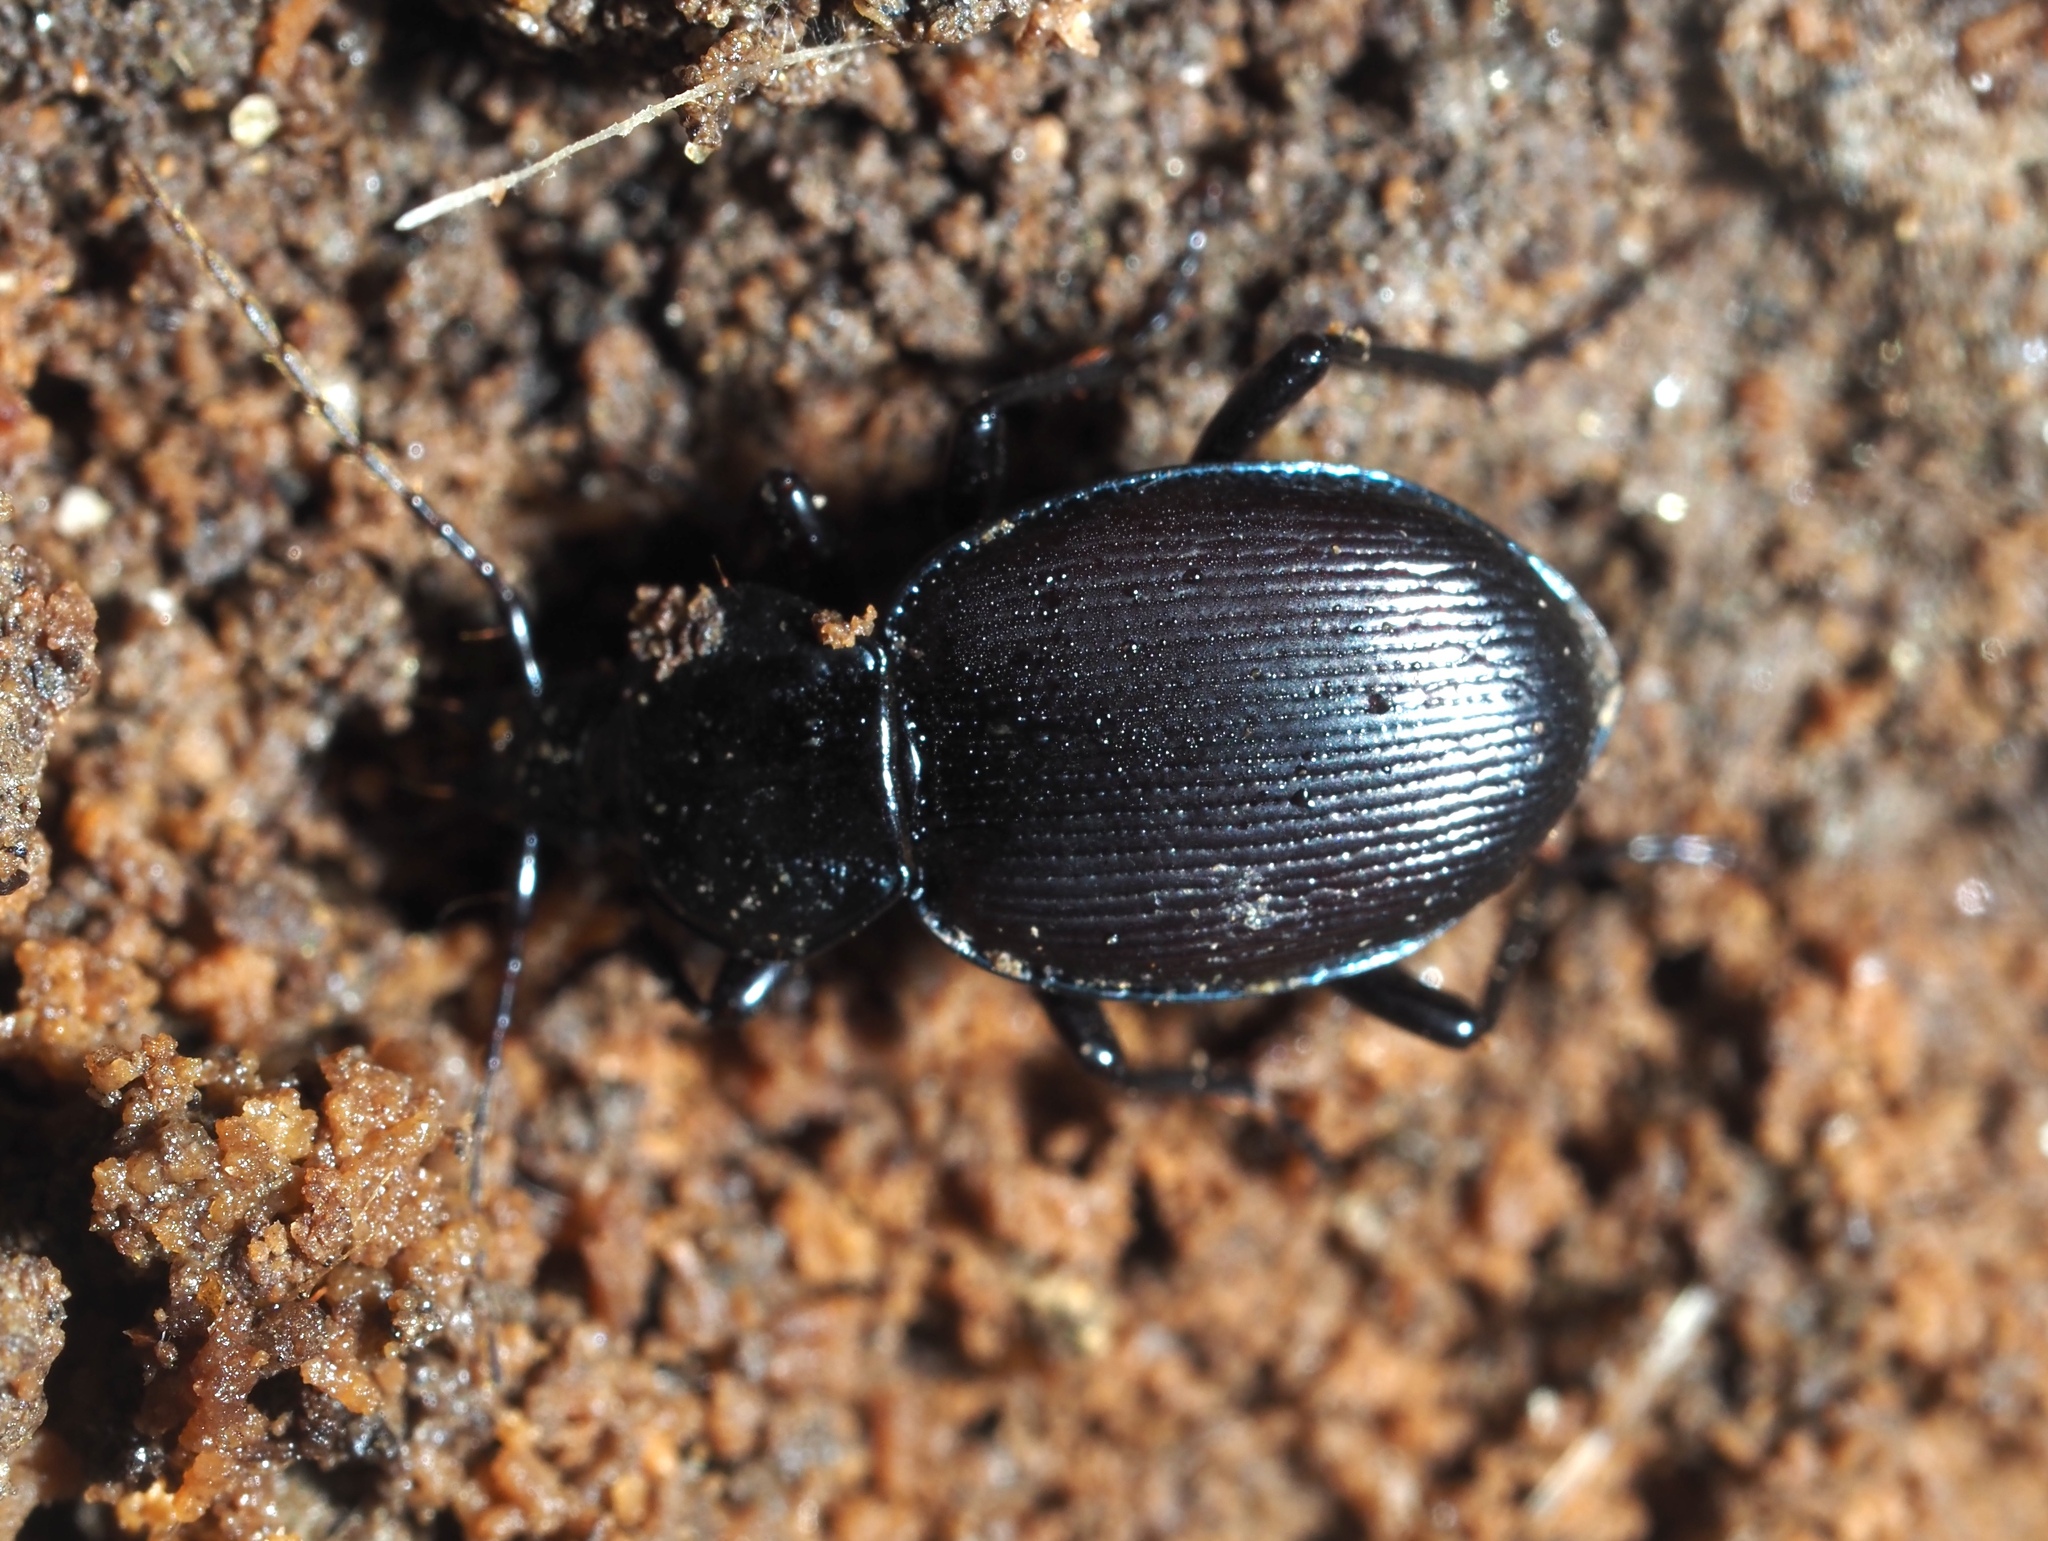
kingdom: Animalia
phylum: Arthropoda
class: Insecta
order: Coleoptera
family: Carabidae
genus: Sphaeroderus
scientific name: Sphaeroderus stenostomus
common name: Small snail-eating ground beetle
